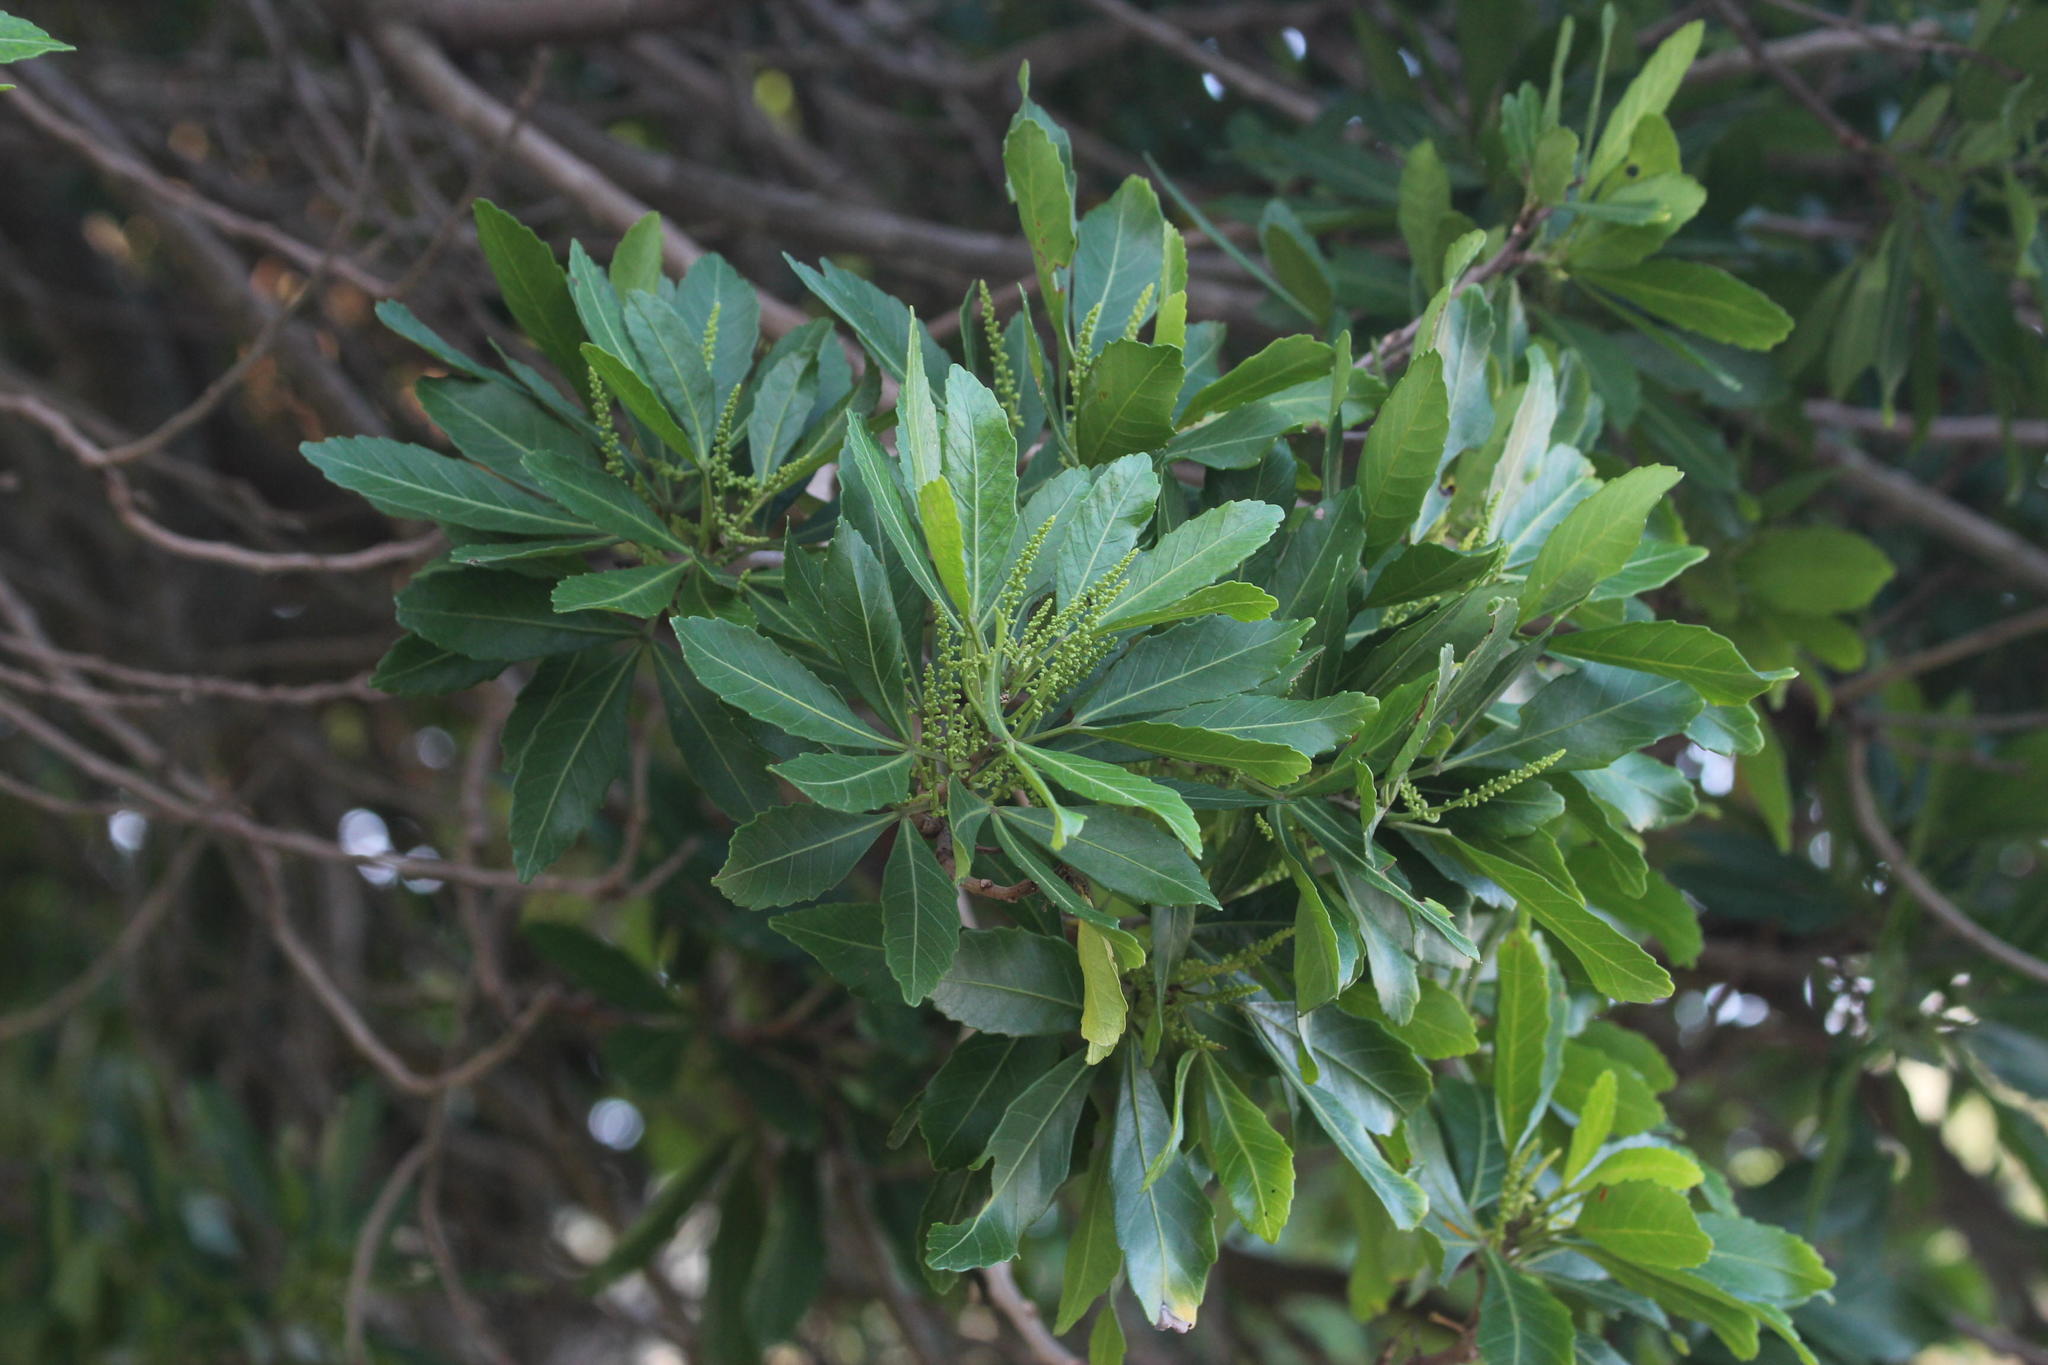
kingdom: Plantae
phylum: Tracheophyta
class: Magnoliopsida
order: Sapindales
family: Sapindaceae
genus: Allophylus
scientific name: Allophylus natalensis
